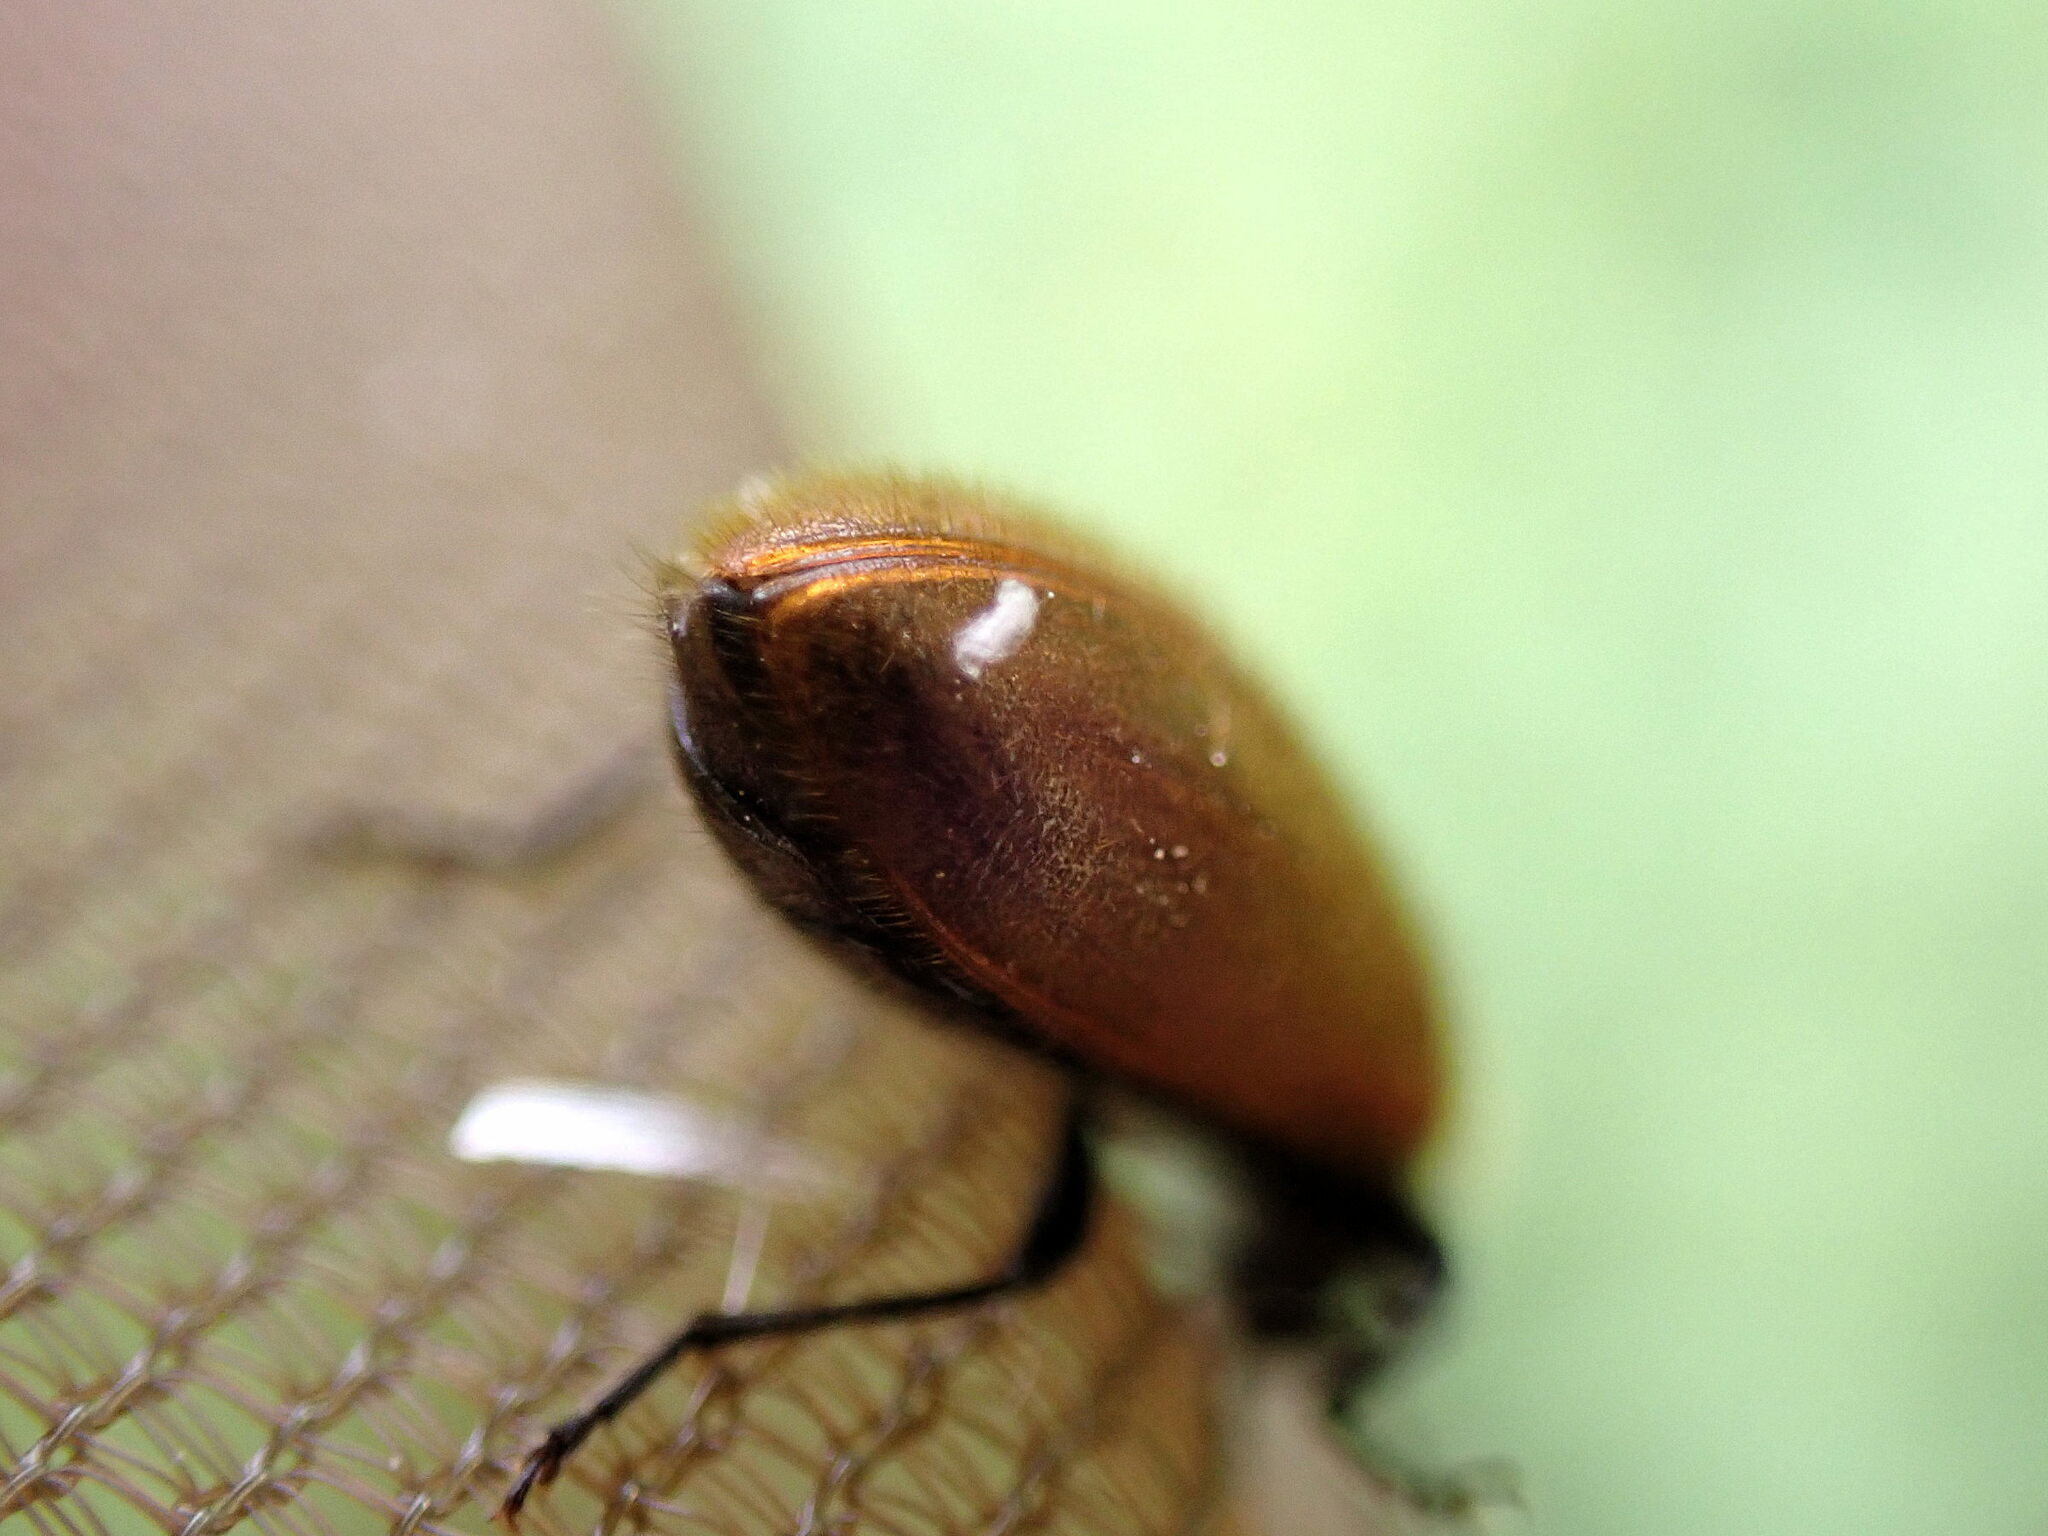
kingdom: Animalia
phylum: Arthropoda
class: Insecta
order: Coleoptera
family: Tenebrionidae
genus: Lagria
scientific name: Lagria hirta
